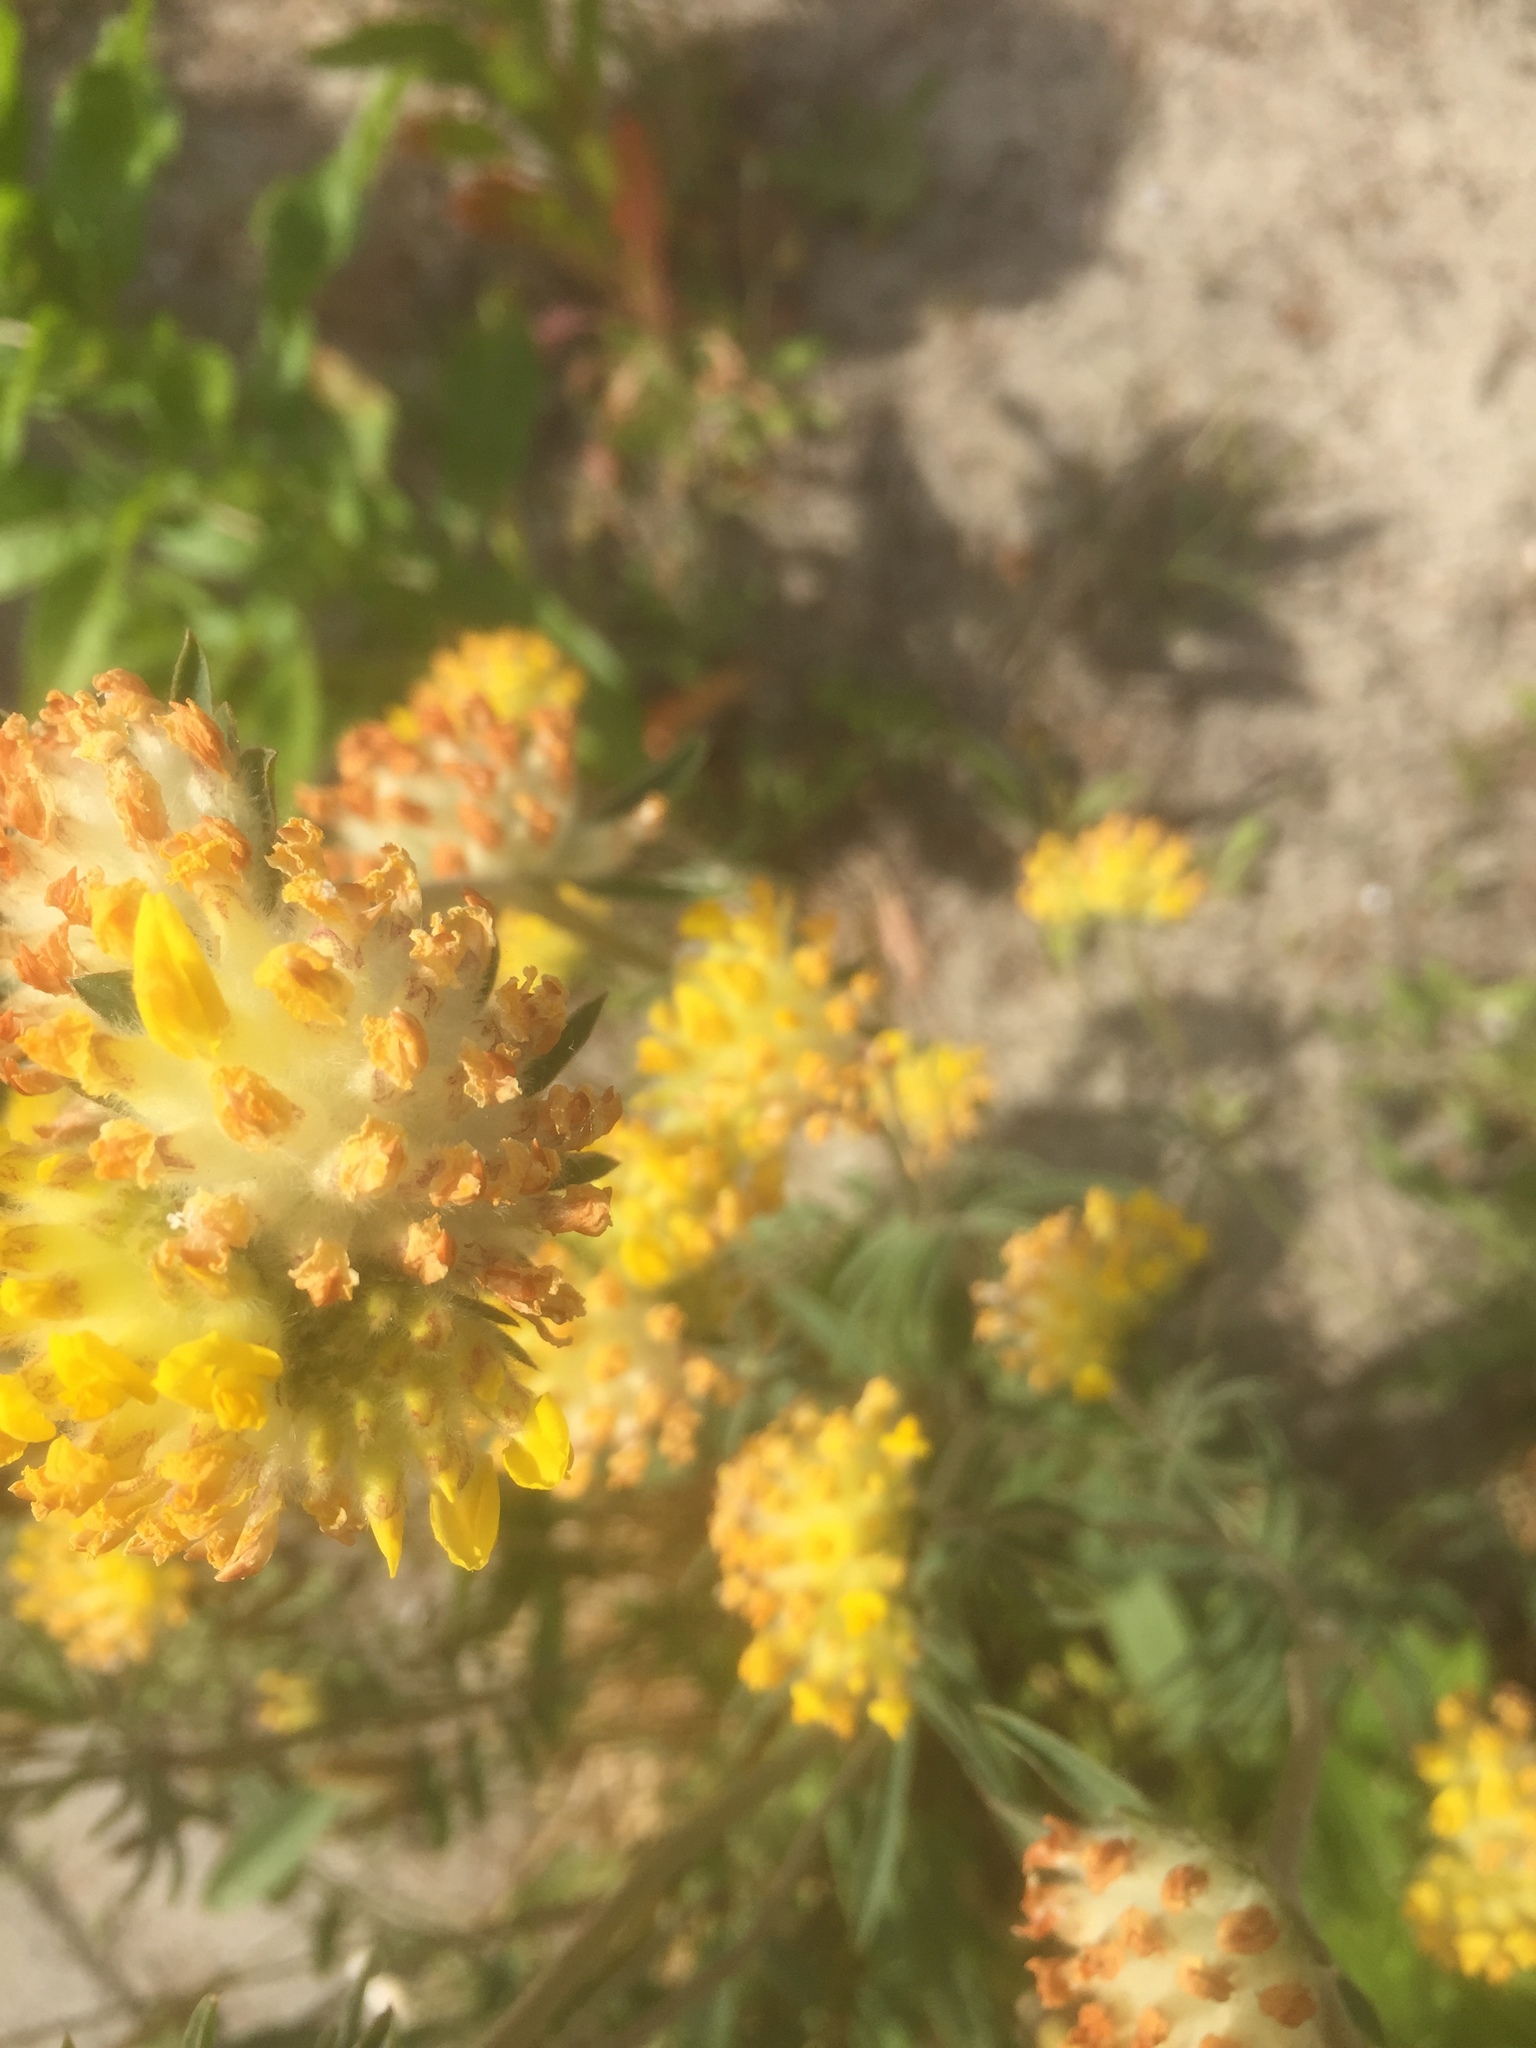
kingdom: Plantae
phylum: Tracheophyta
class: Magnoliopsida
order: Fabales
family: Fabaceae
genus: Anthyllis
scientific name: Anthyllis vulneraria
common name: Kidney vetch
